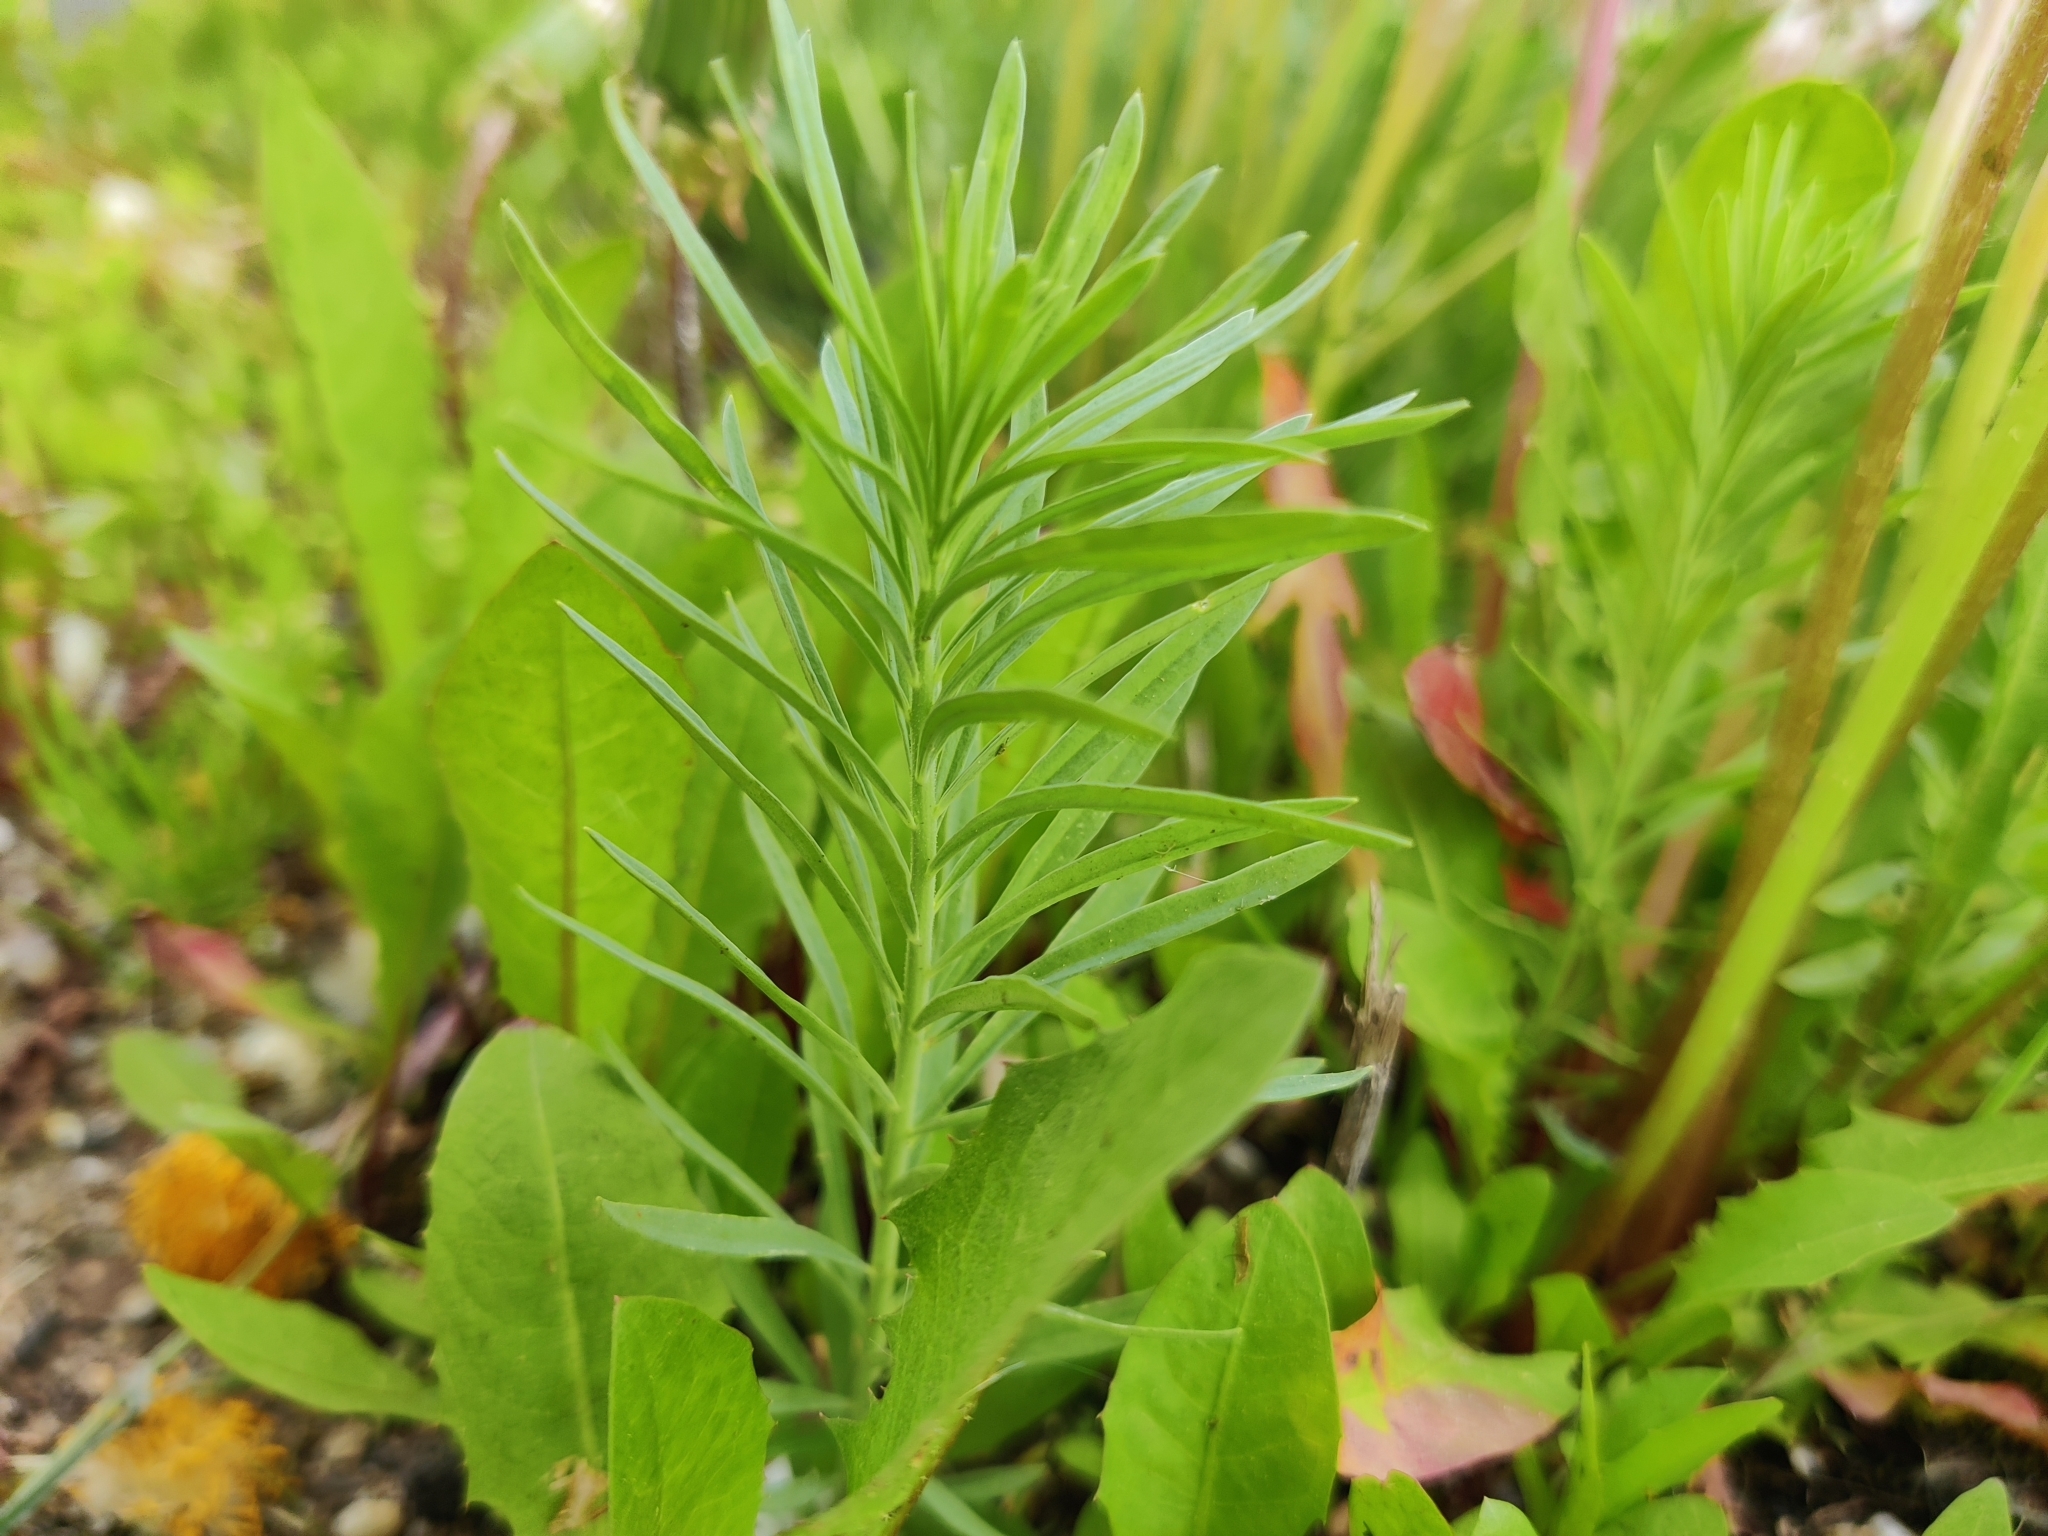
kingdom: Plantae
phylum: Tracheophyta
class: Magnoliopsida
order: Lamiales
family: Plantaginaceae
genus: Linaria
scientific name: Linaria vulgaris
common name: Butter and eggs
